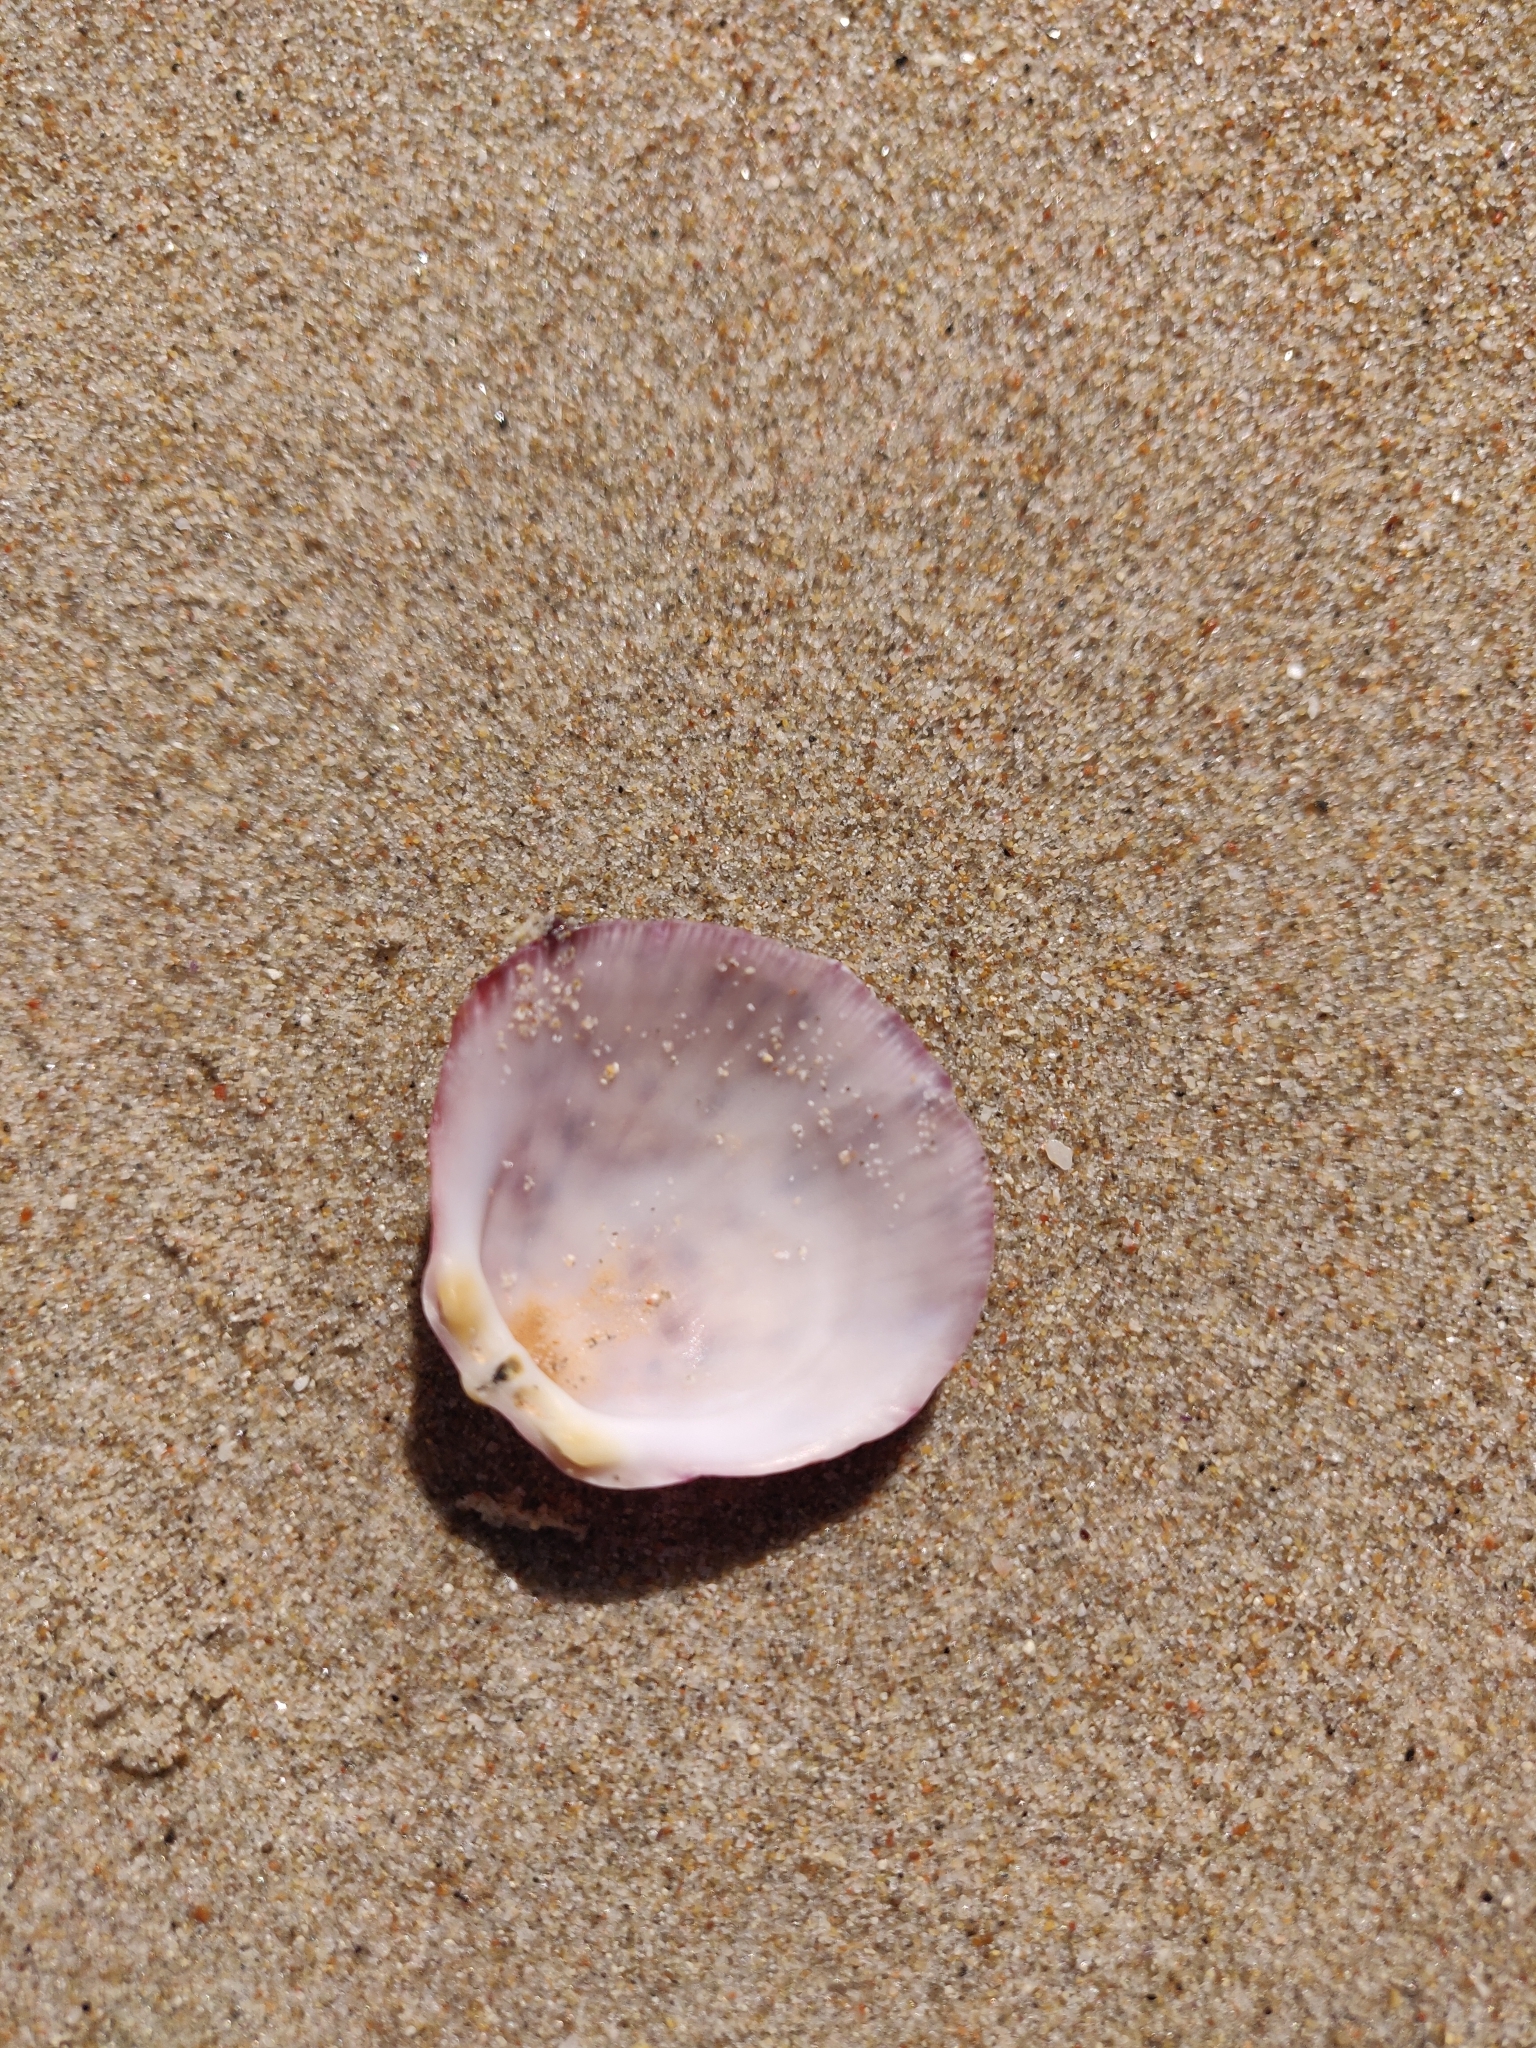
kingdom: Animalia
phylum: Mollusca
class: Bivalvia
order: Pectinida
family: Spondylidae
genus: Spondylus
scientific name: Spondylus gaederopus
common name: European thorny oyster
